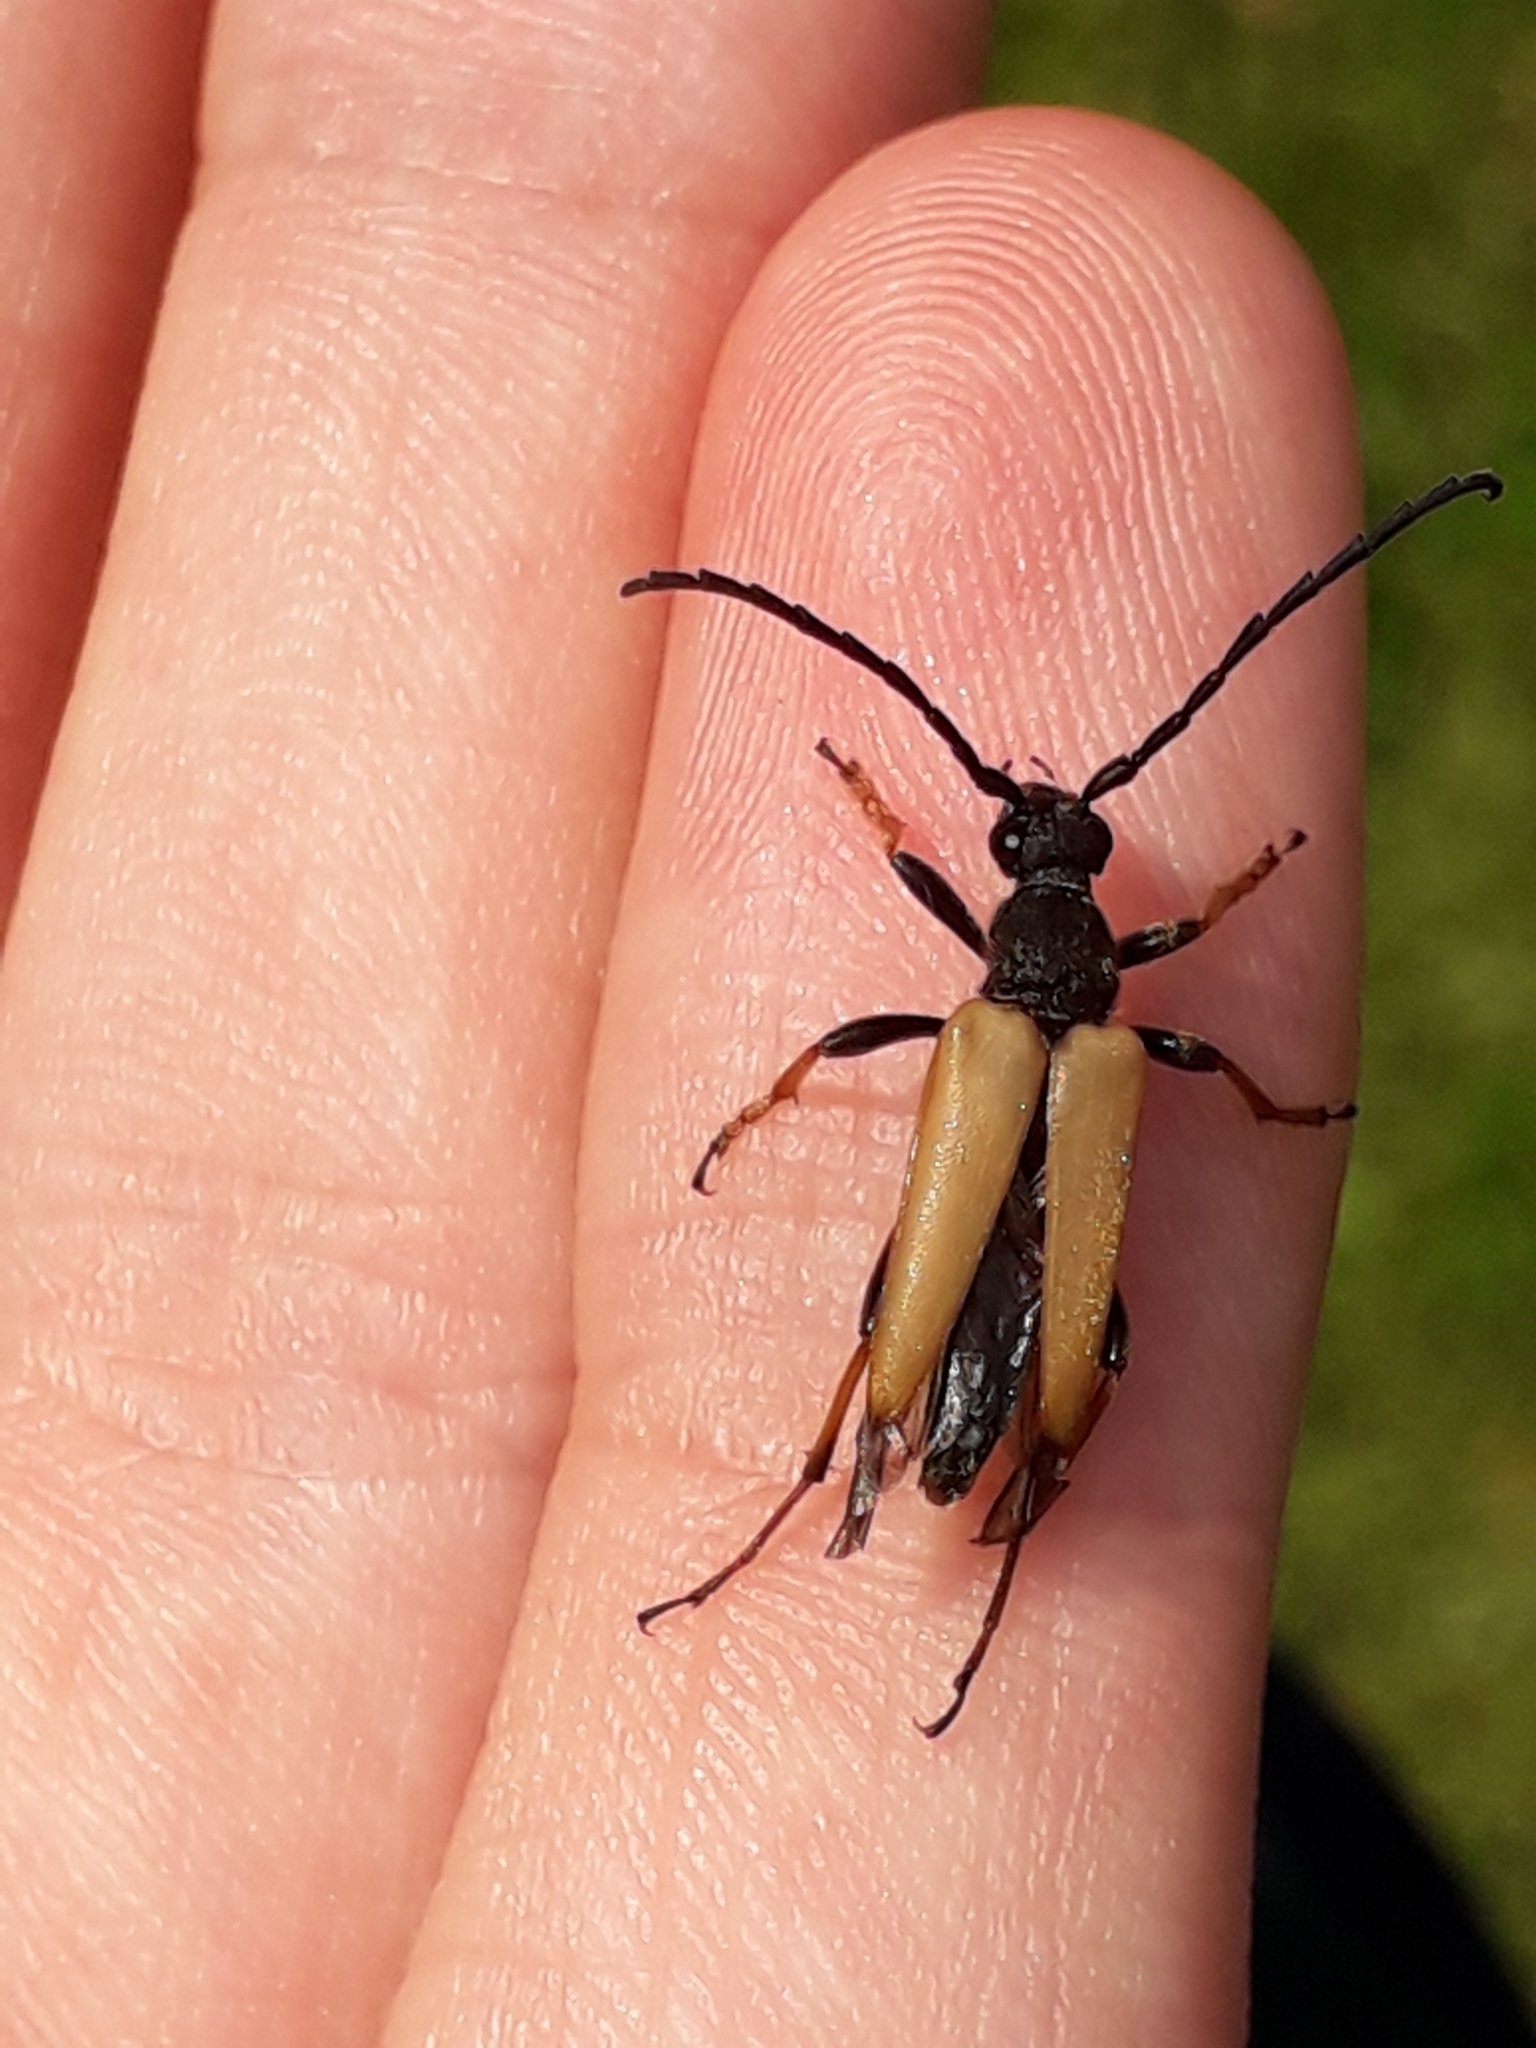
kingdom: Animalia
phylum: Arthropoda
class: Insecta
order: Coleoptera
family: Cerambycidae
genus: Stictoleptura
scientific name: Stictoleptura rubra
